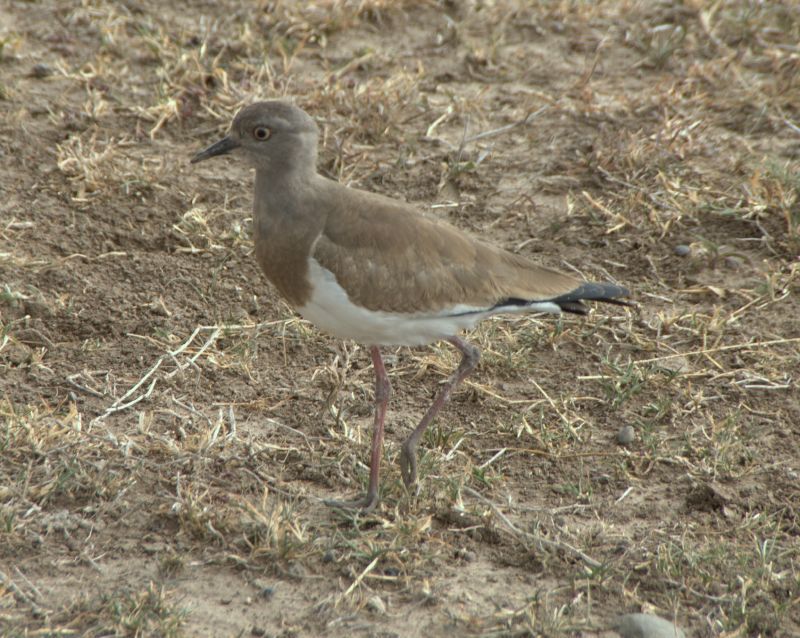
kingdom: Animalia
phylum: Chordata
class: Aves
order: Charadriiformes
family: Charadriidae
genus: Vanellus
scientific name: Vanellus melanopterus
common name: Black-winged lapwing
